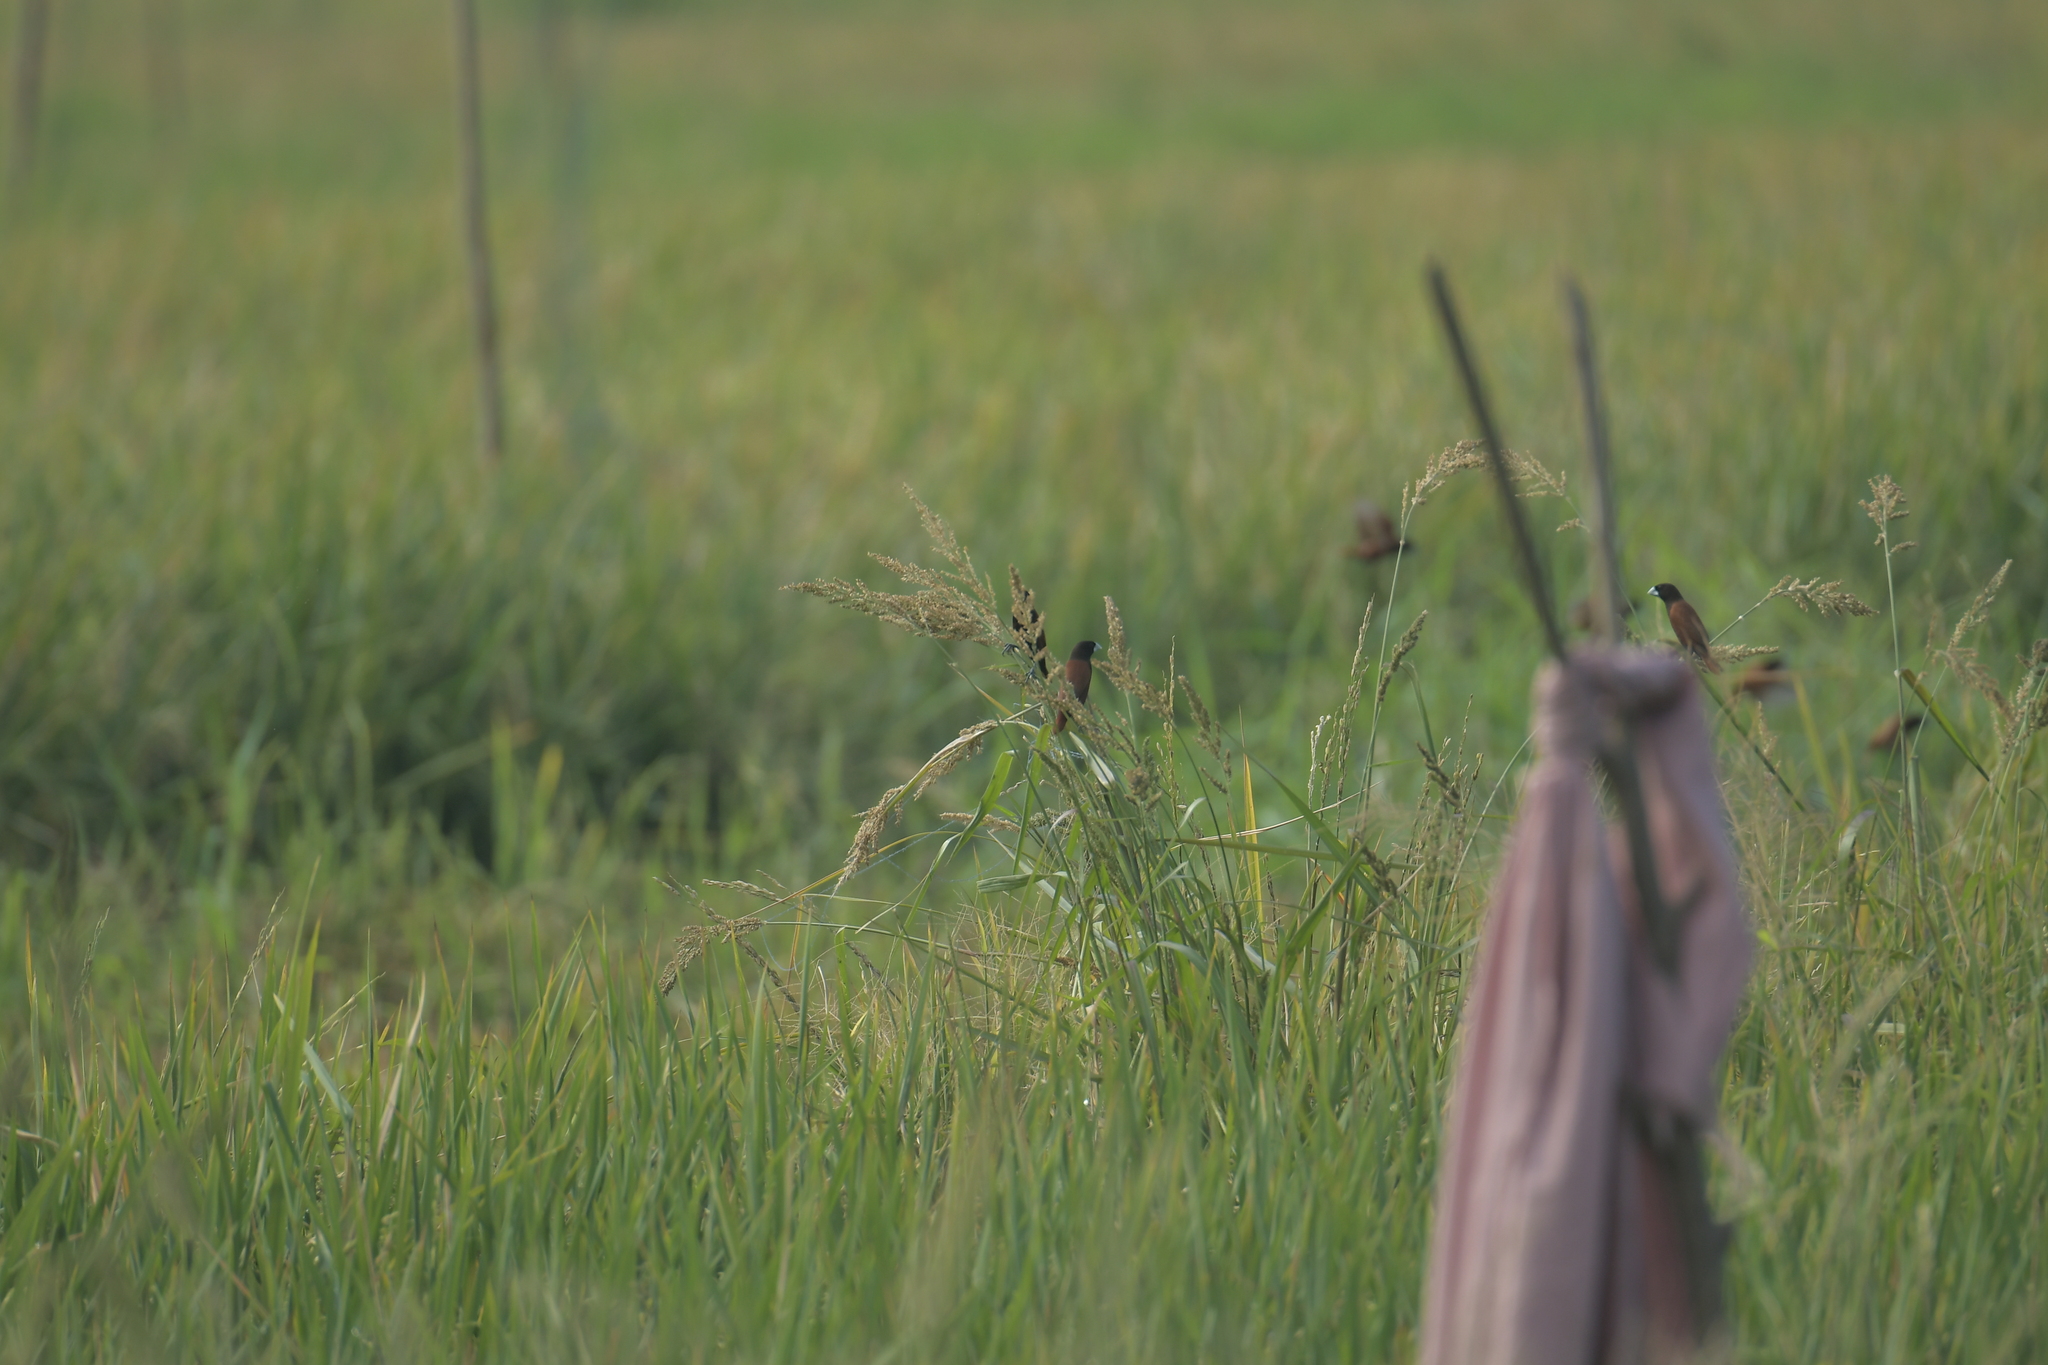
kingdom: Animalia
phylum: Chordata
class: Aves
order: Passeriformes
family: Estrildidae
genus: Lonchura
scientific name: Lonchura atricapilla
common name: Chestnut munia
